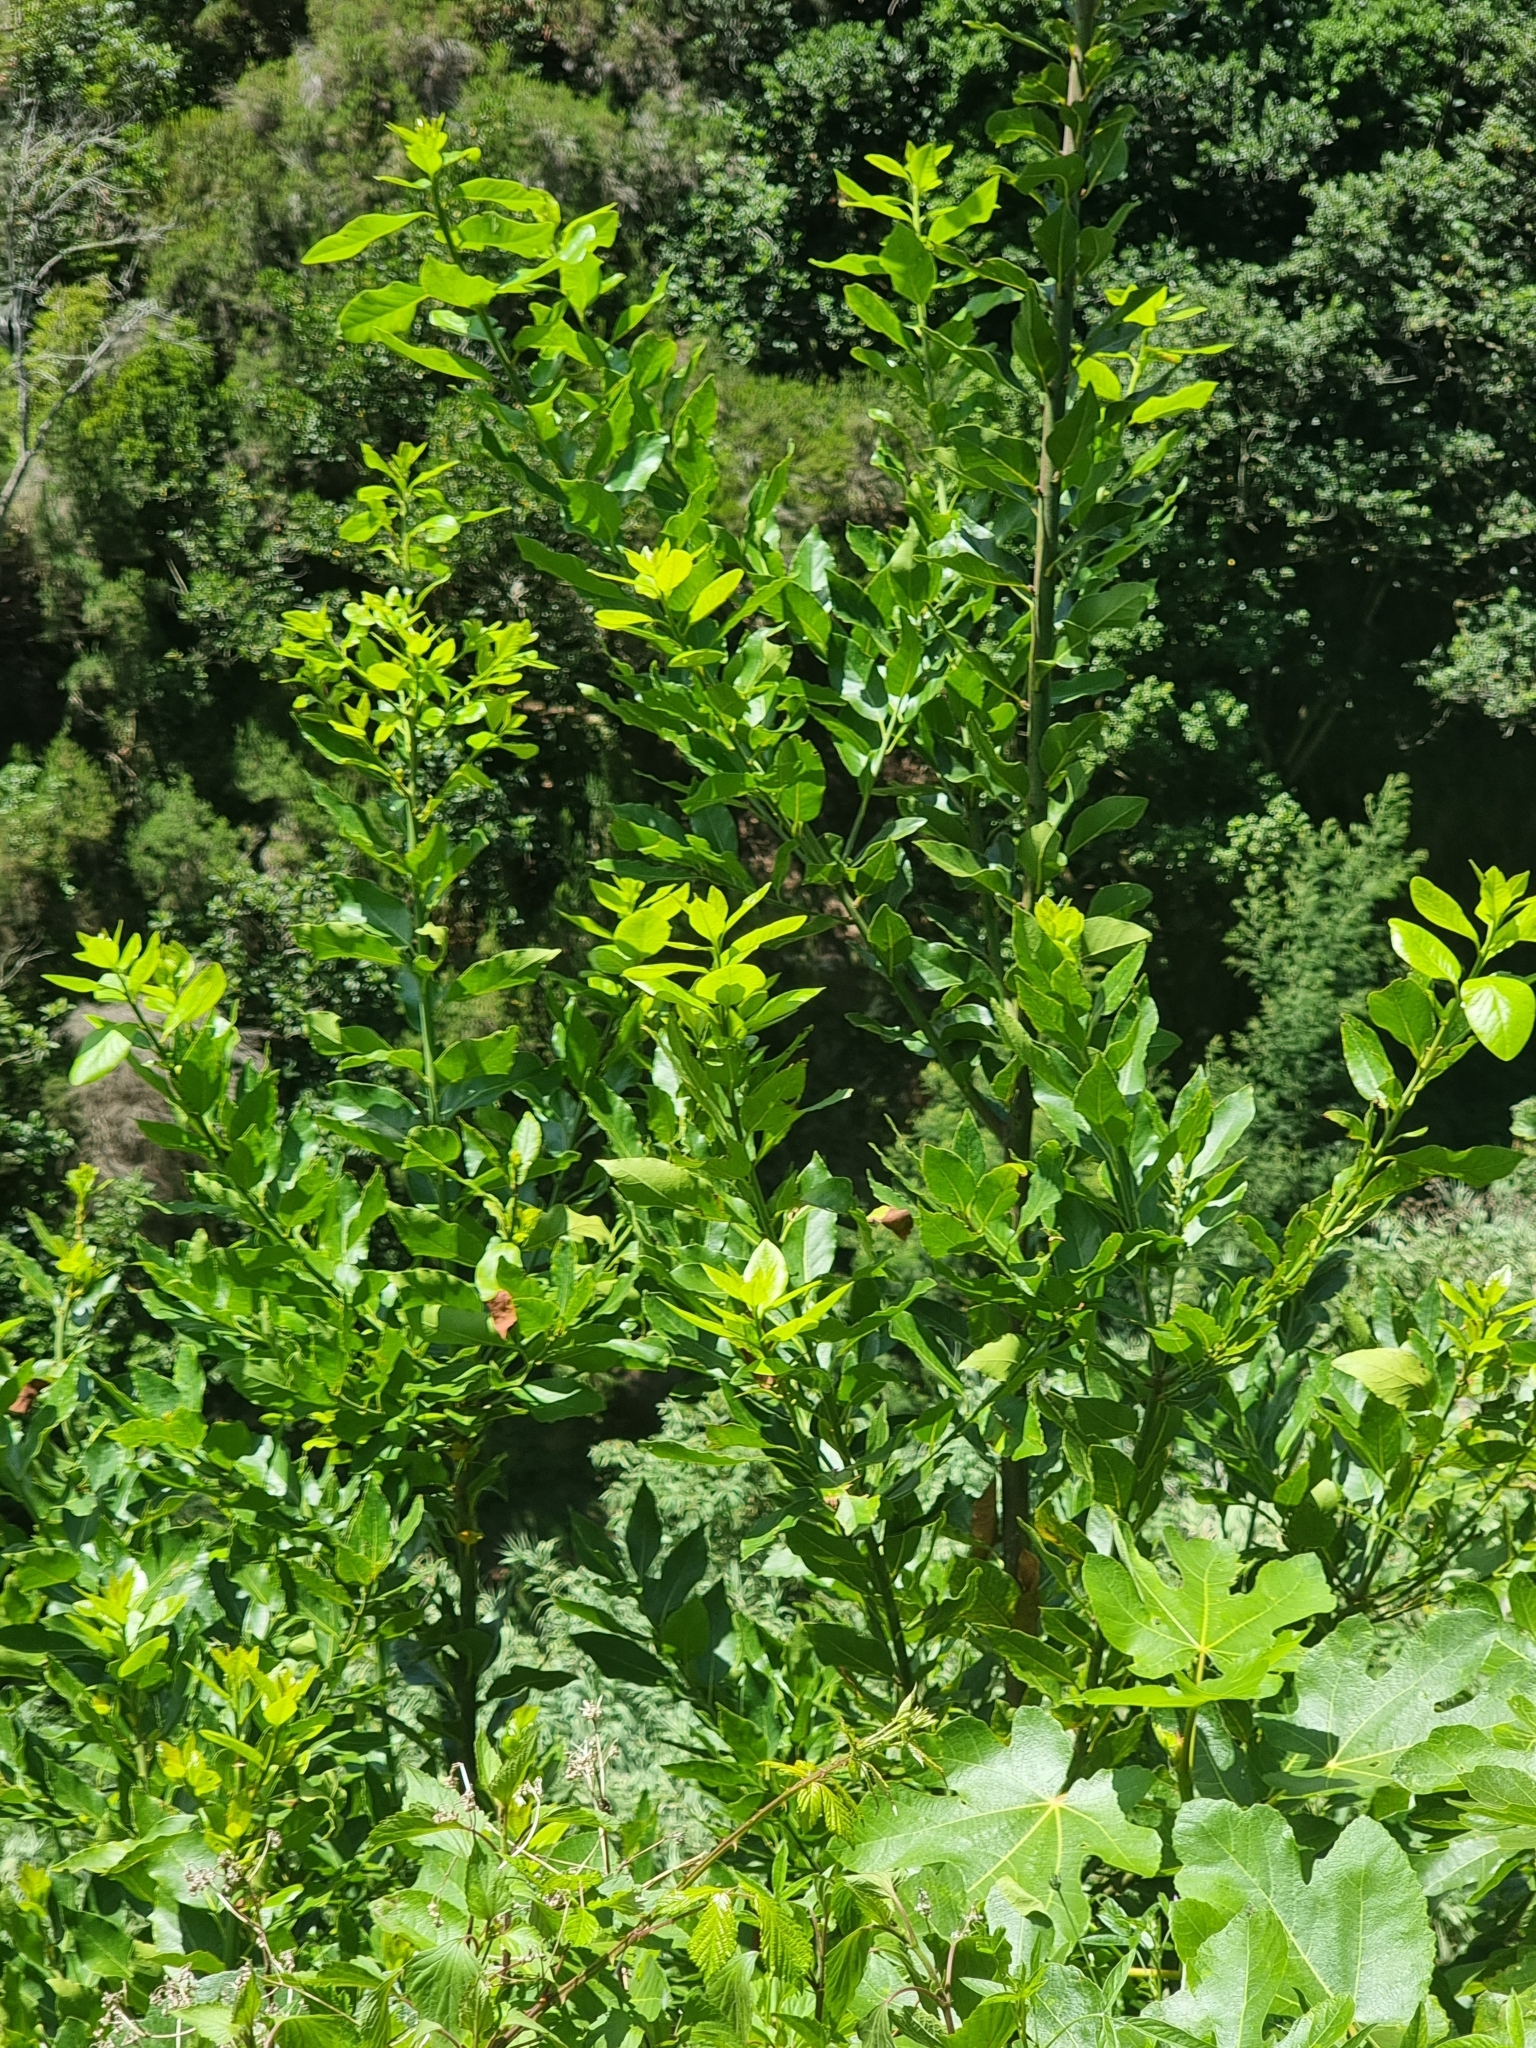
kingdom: Plantae
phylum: Tracheophyta
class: Magnoliopsida
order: Laurales
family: Lauraceae
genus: Laurus
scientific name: Laurus novocanariensis
